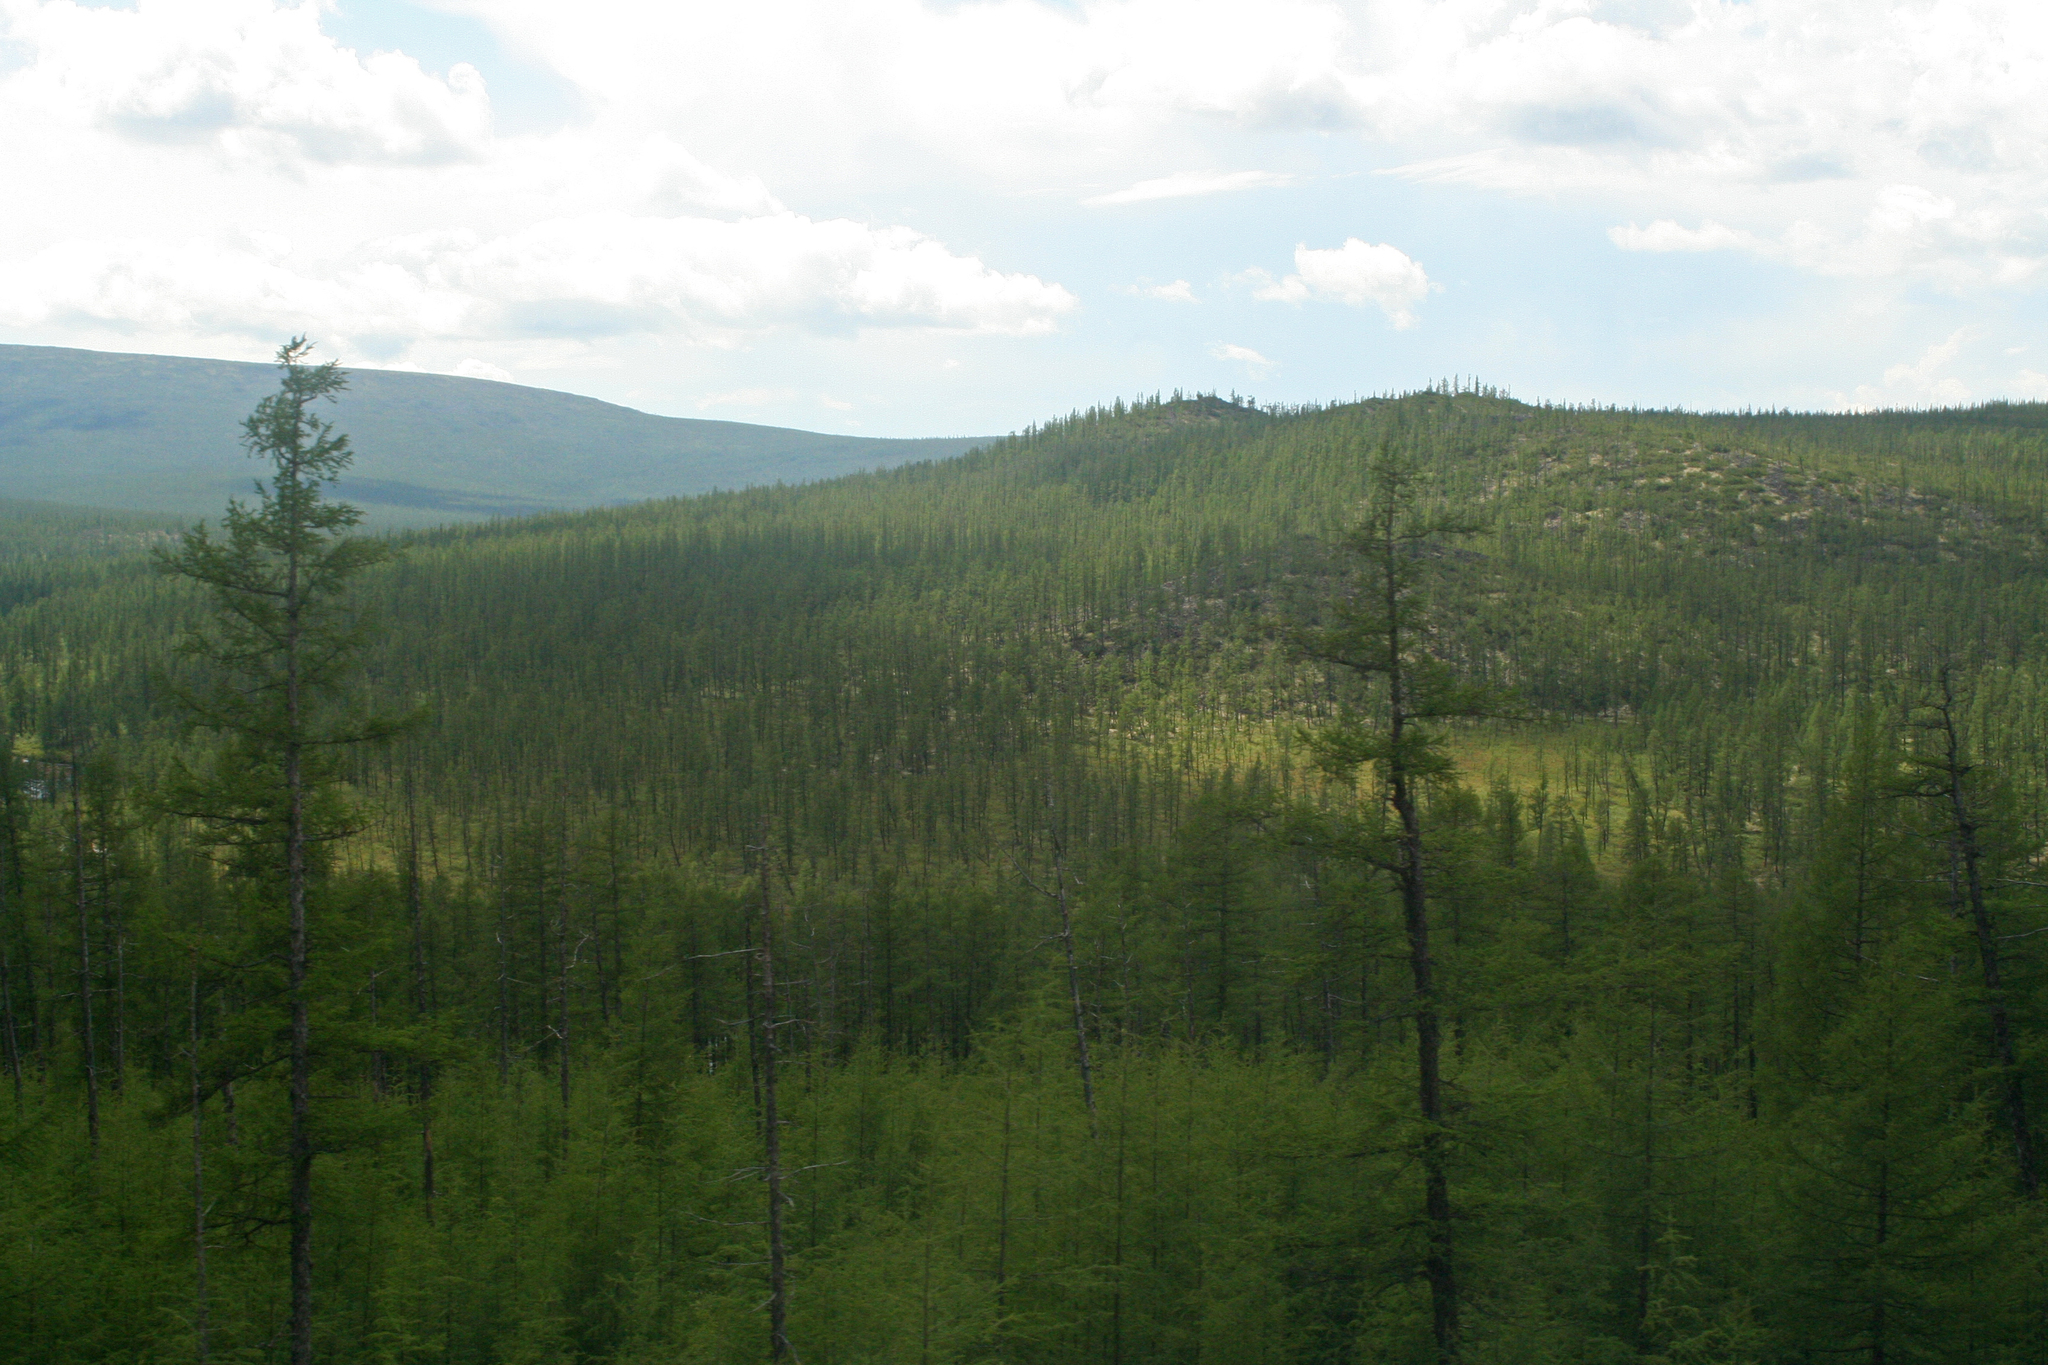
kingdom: Plantae
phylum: Tracheophyta
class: Pinopsida
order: Pinales
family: Pinaceae
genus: Larix
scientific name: Larix gmelinii
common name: Dahurian larch
